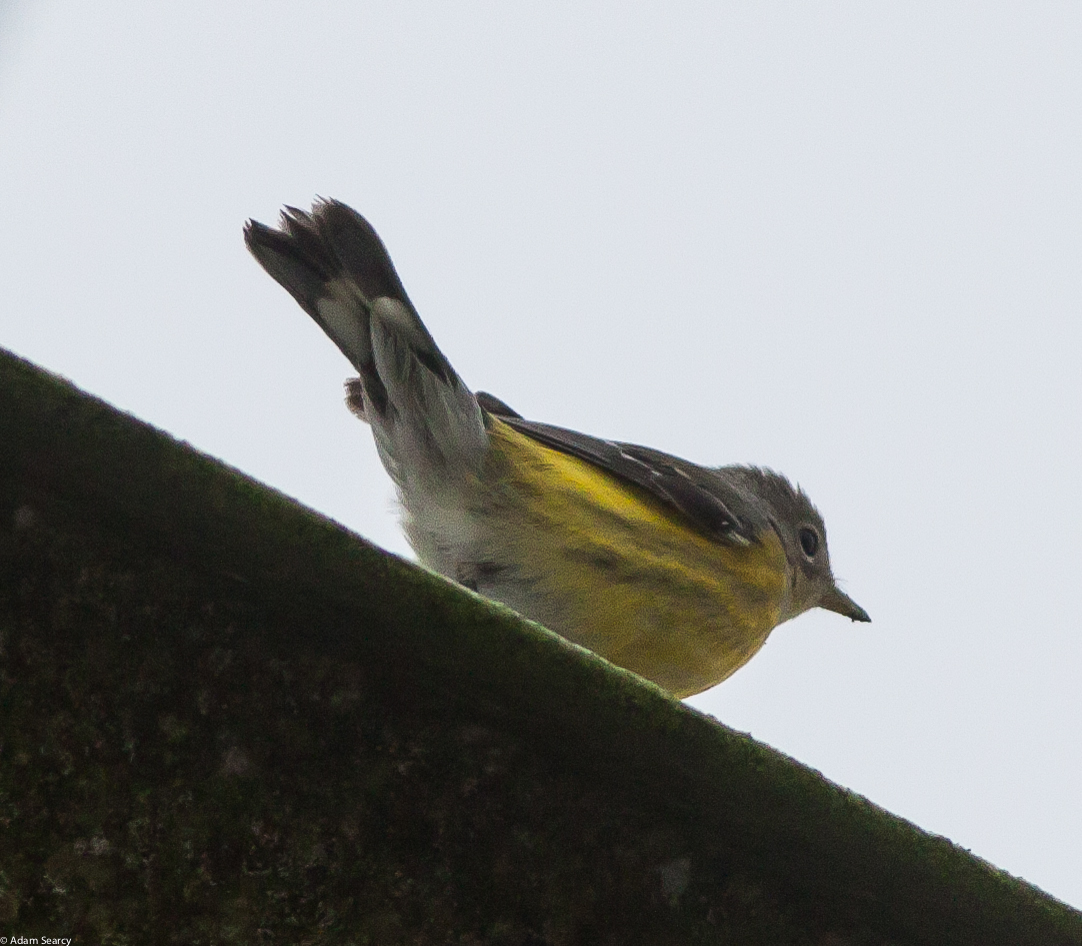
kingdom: Animalia
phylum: Chordata
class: Aves
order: Passeriformes
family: Parulidae
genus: Setophaga
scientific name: Setophaga magnolia
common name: Magnolia warbler
